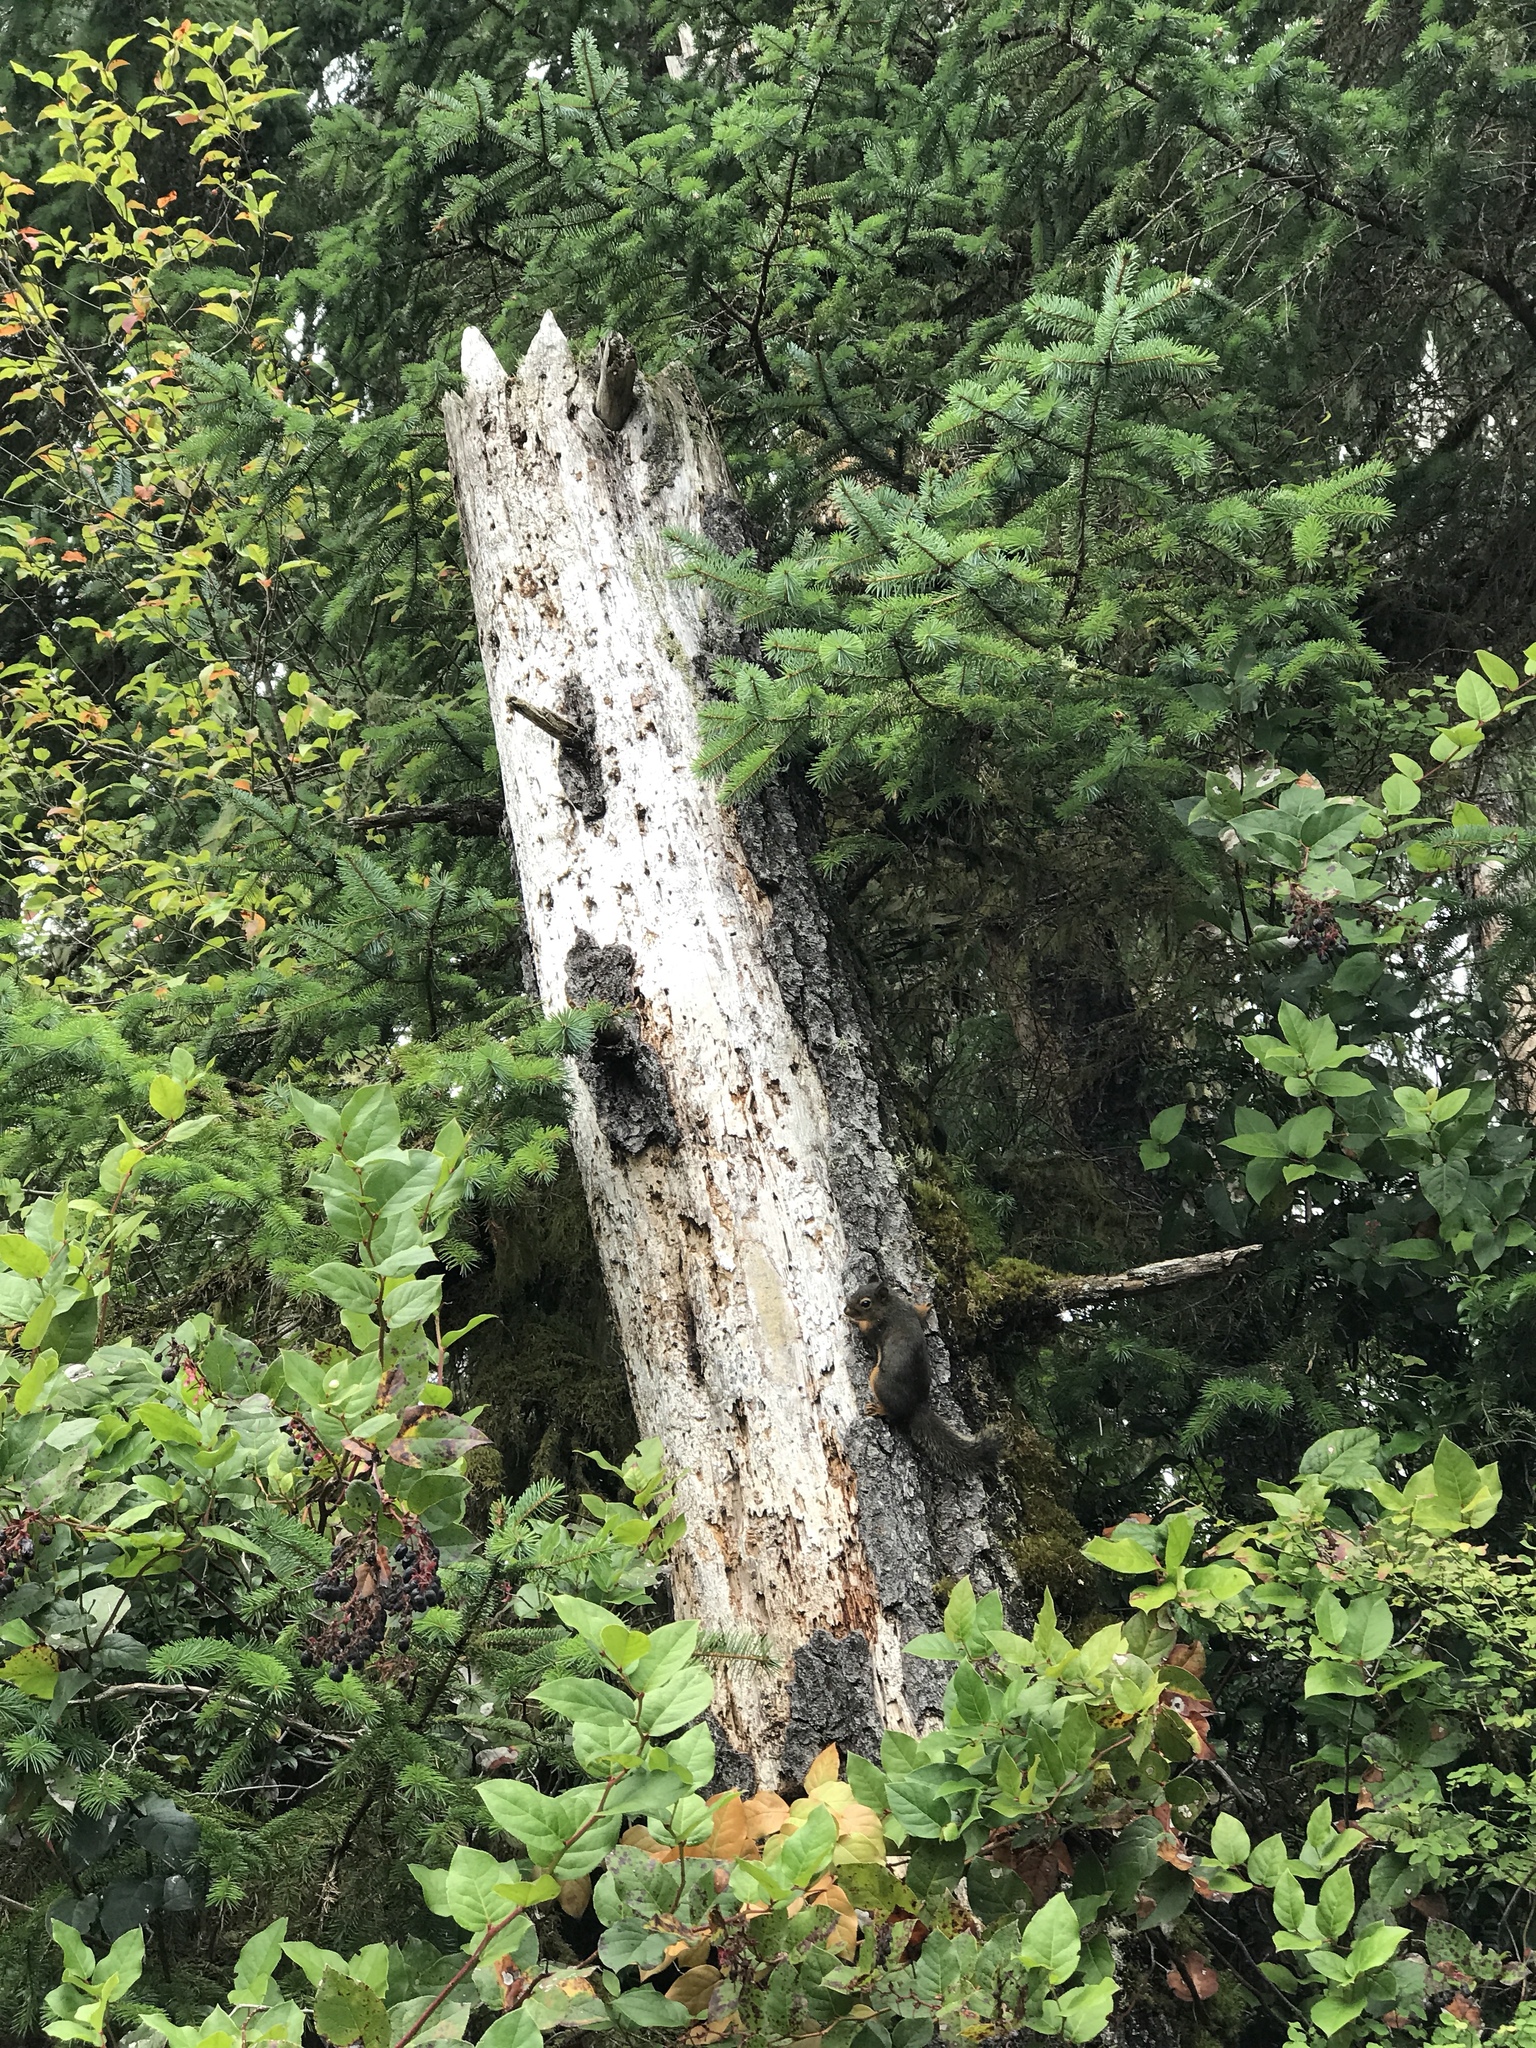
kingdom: Animalia
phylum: Chordata
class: Mammalia
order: Rodentia
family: Sciuridae
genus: Tamiasciurus
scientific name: Tamiasciurus douglasii
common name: Douglas's squirrel
